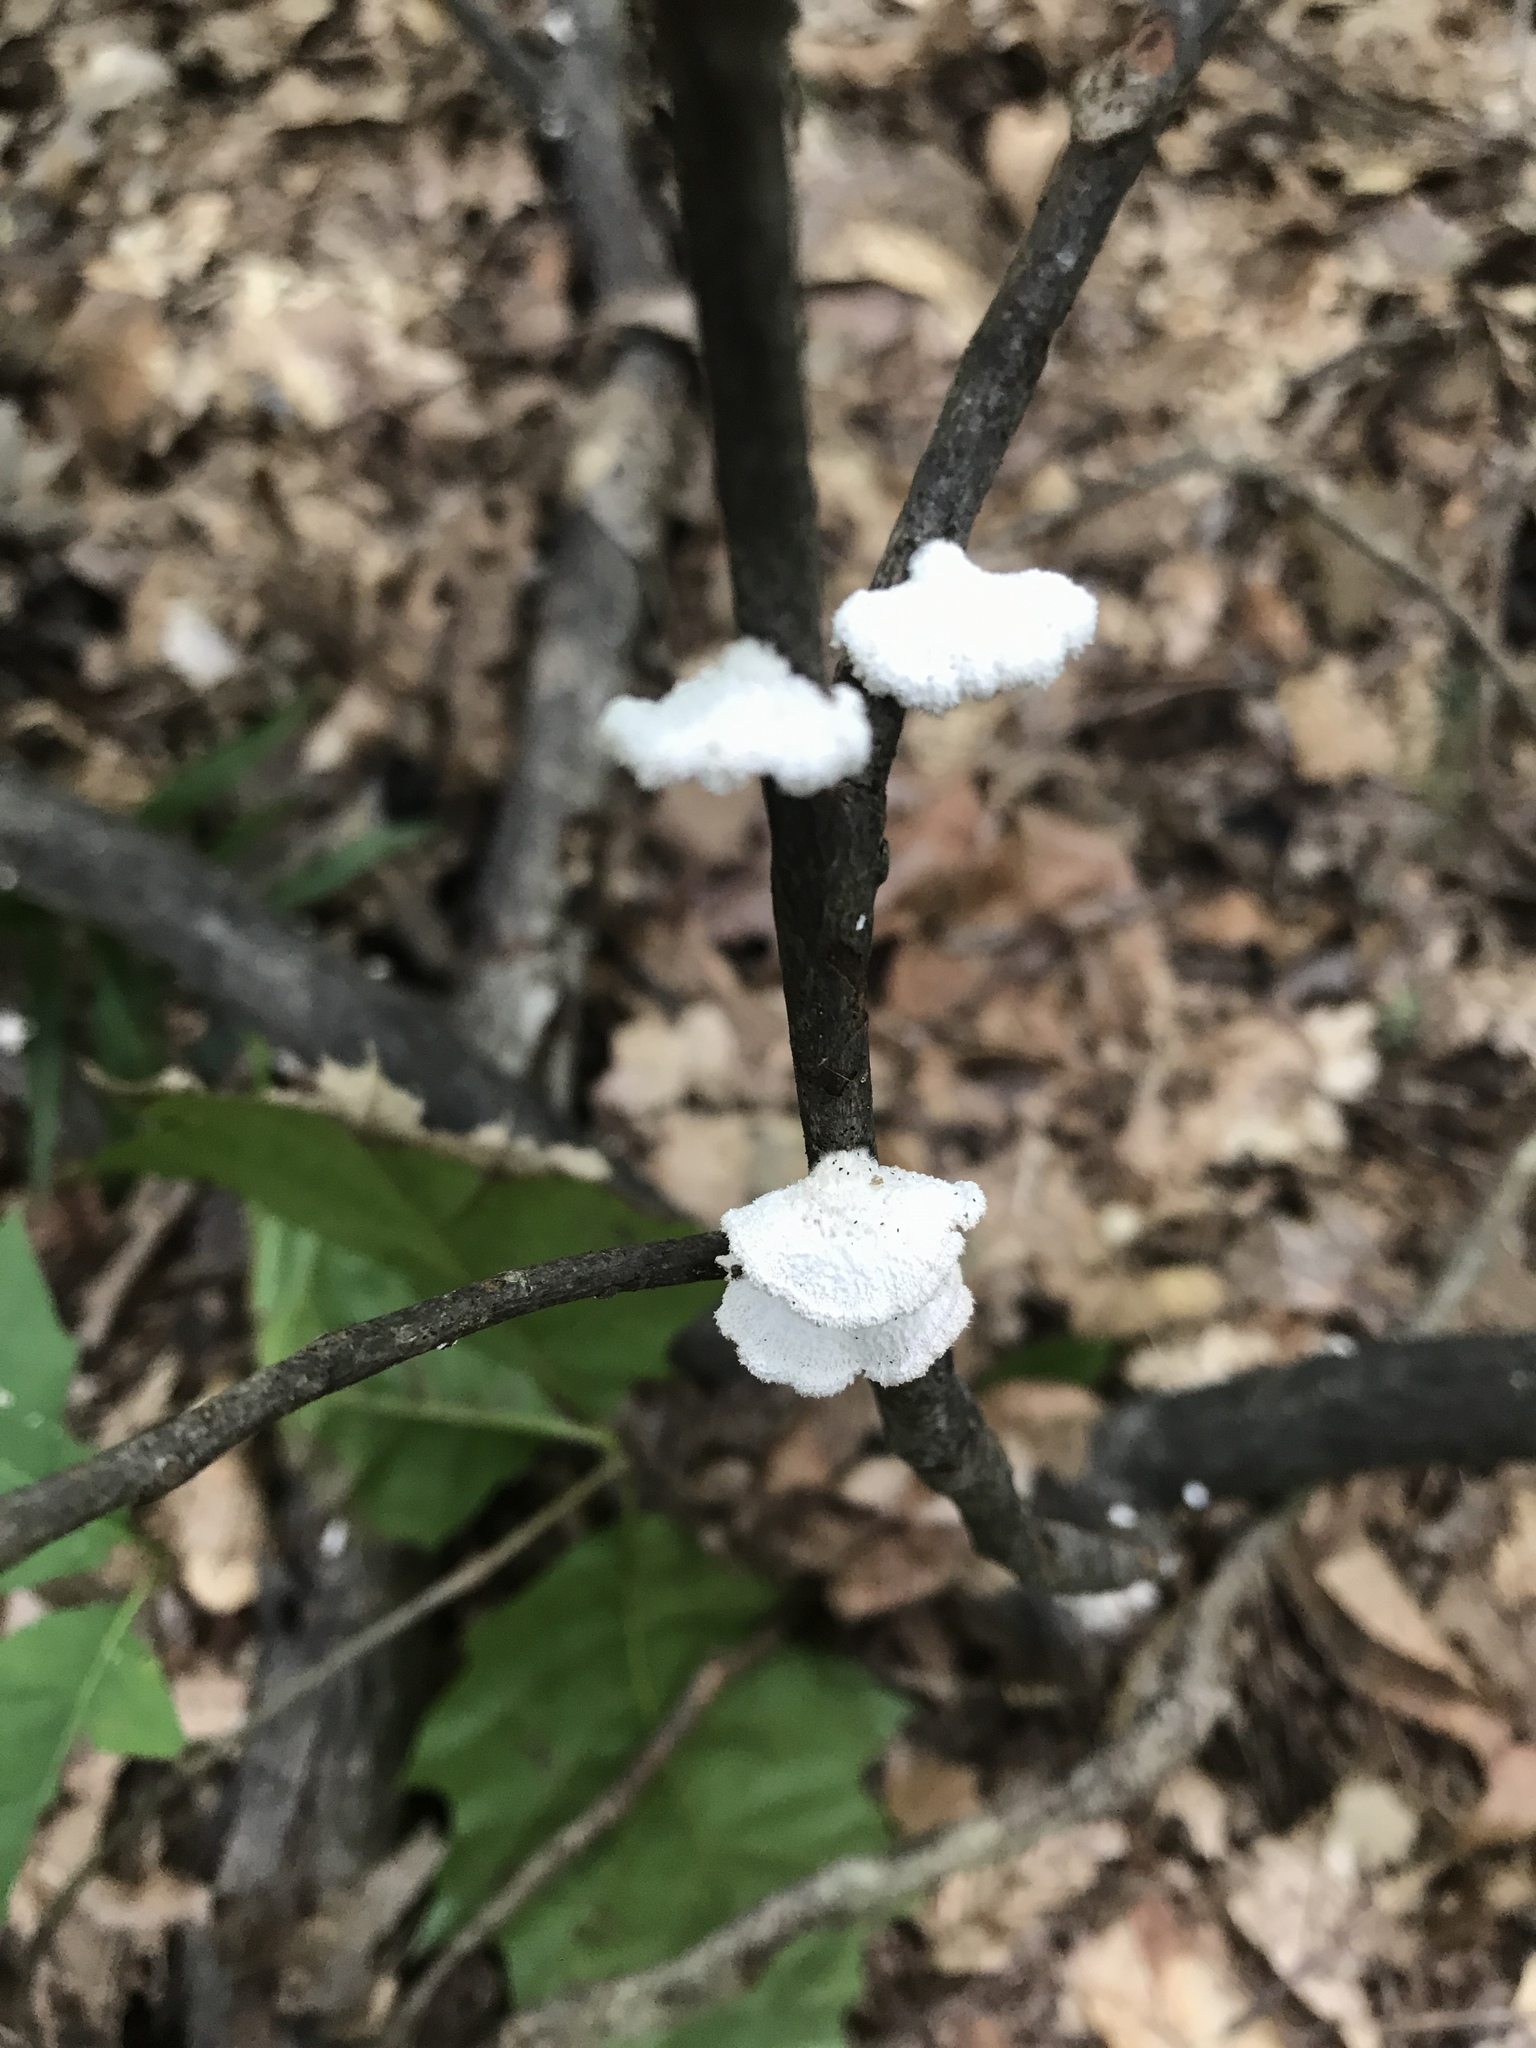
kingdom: Fungi
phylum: Basidiomycota
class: Agaricomycetes
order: Agaricales
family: Schizophyllaceae
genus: Schizophyllum
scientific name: Schizophyllum commune
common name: Common porecrust
